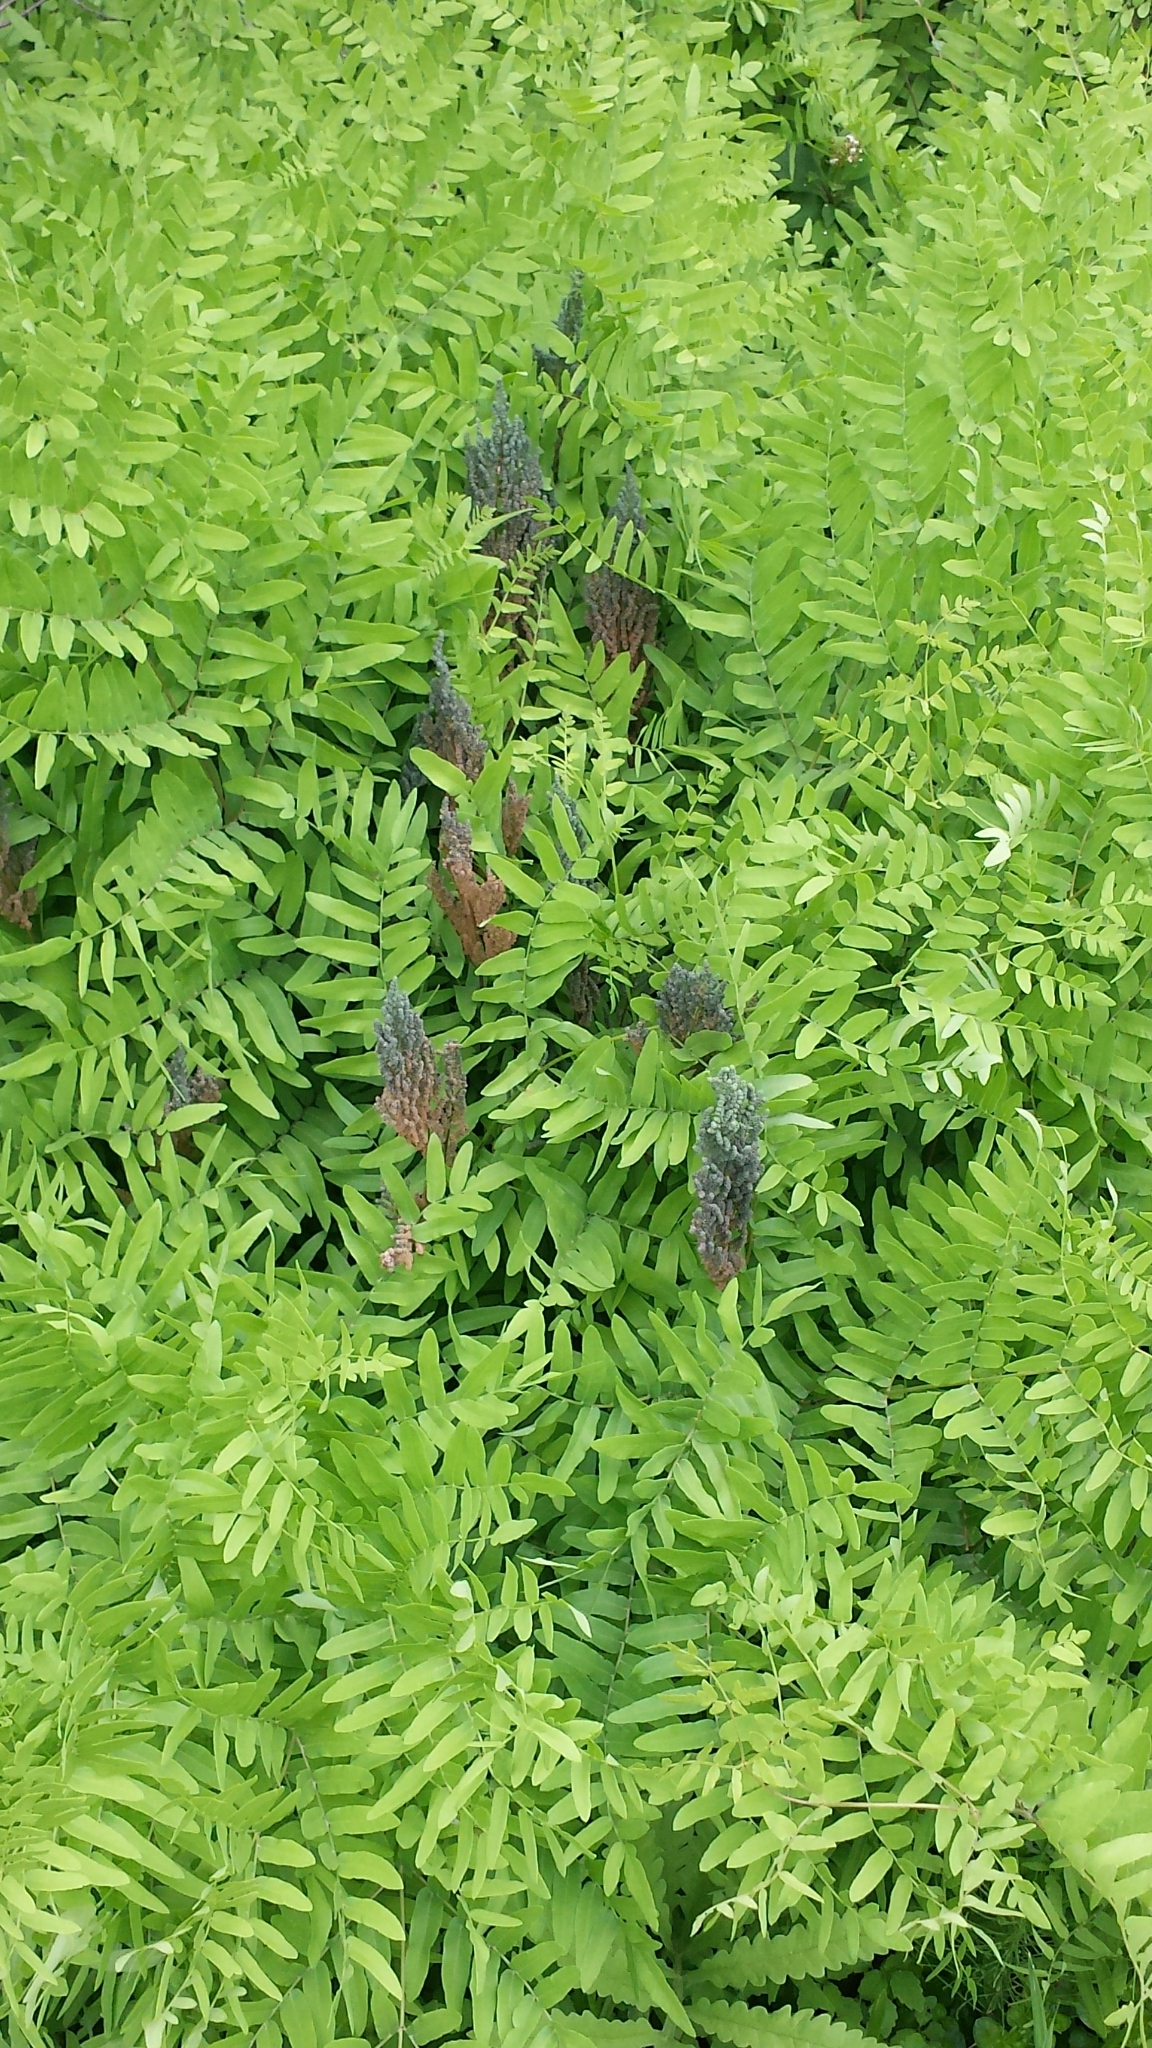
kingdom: Plantae
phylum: Tracheophyta
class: Polypodiopsida
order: Osmundales
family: Osmundaceae
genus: Osmunda
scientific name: Osmunda spectabilis
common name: American royal fern
